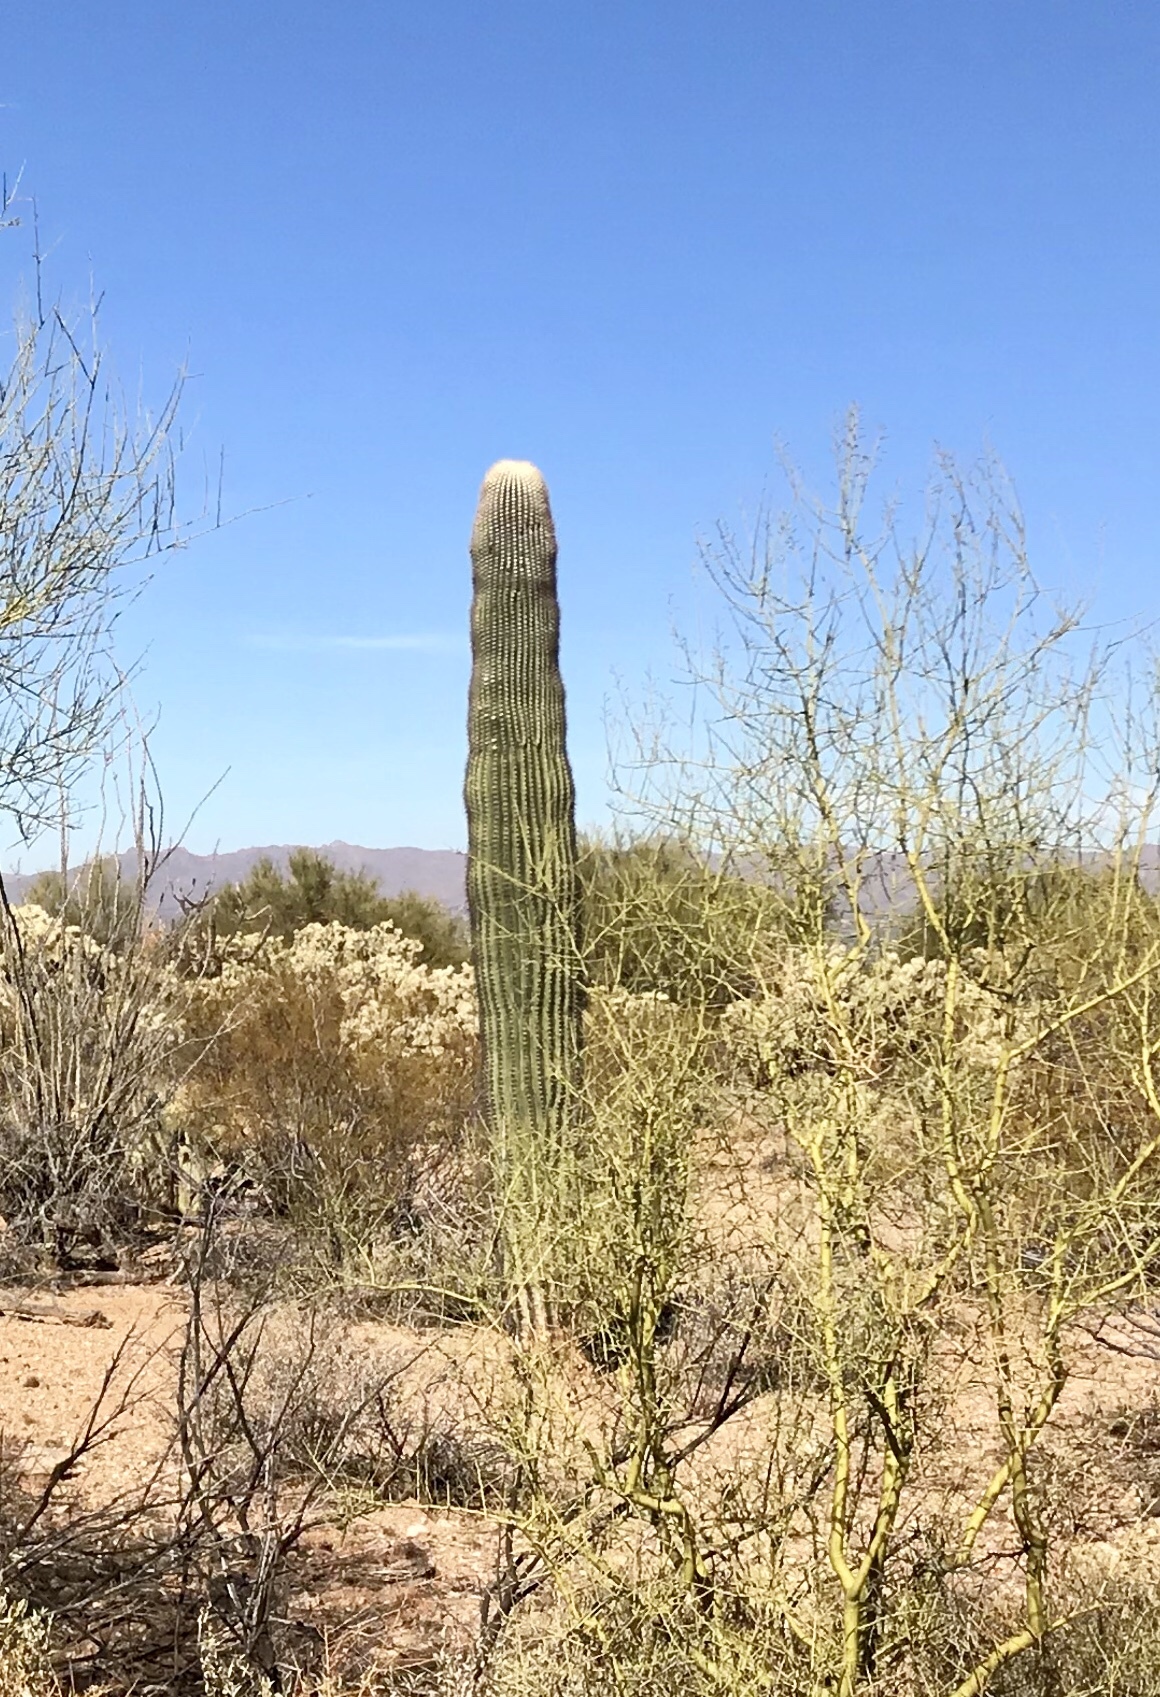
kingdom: Plantae
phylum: Tracheophyta
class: Magnoliopsida
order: Caryophyllales
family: Cactaceae
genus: Carnegiea
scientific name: Carnegiea gigantea
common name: Saguaro
